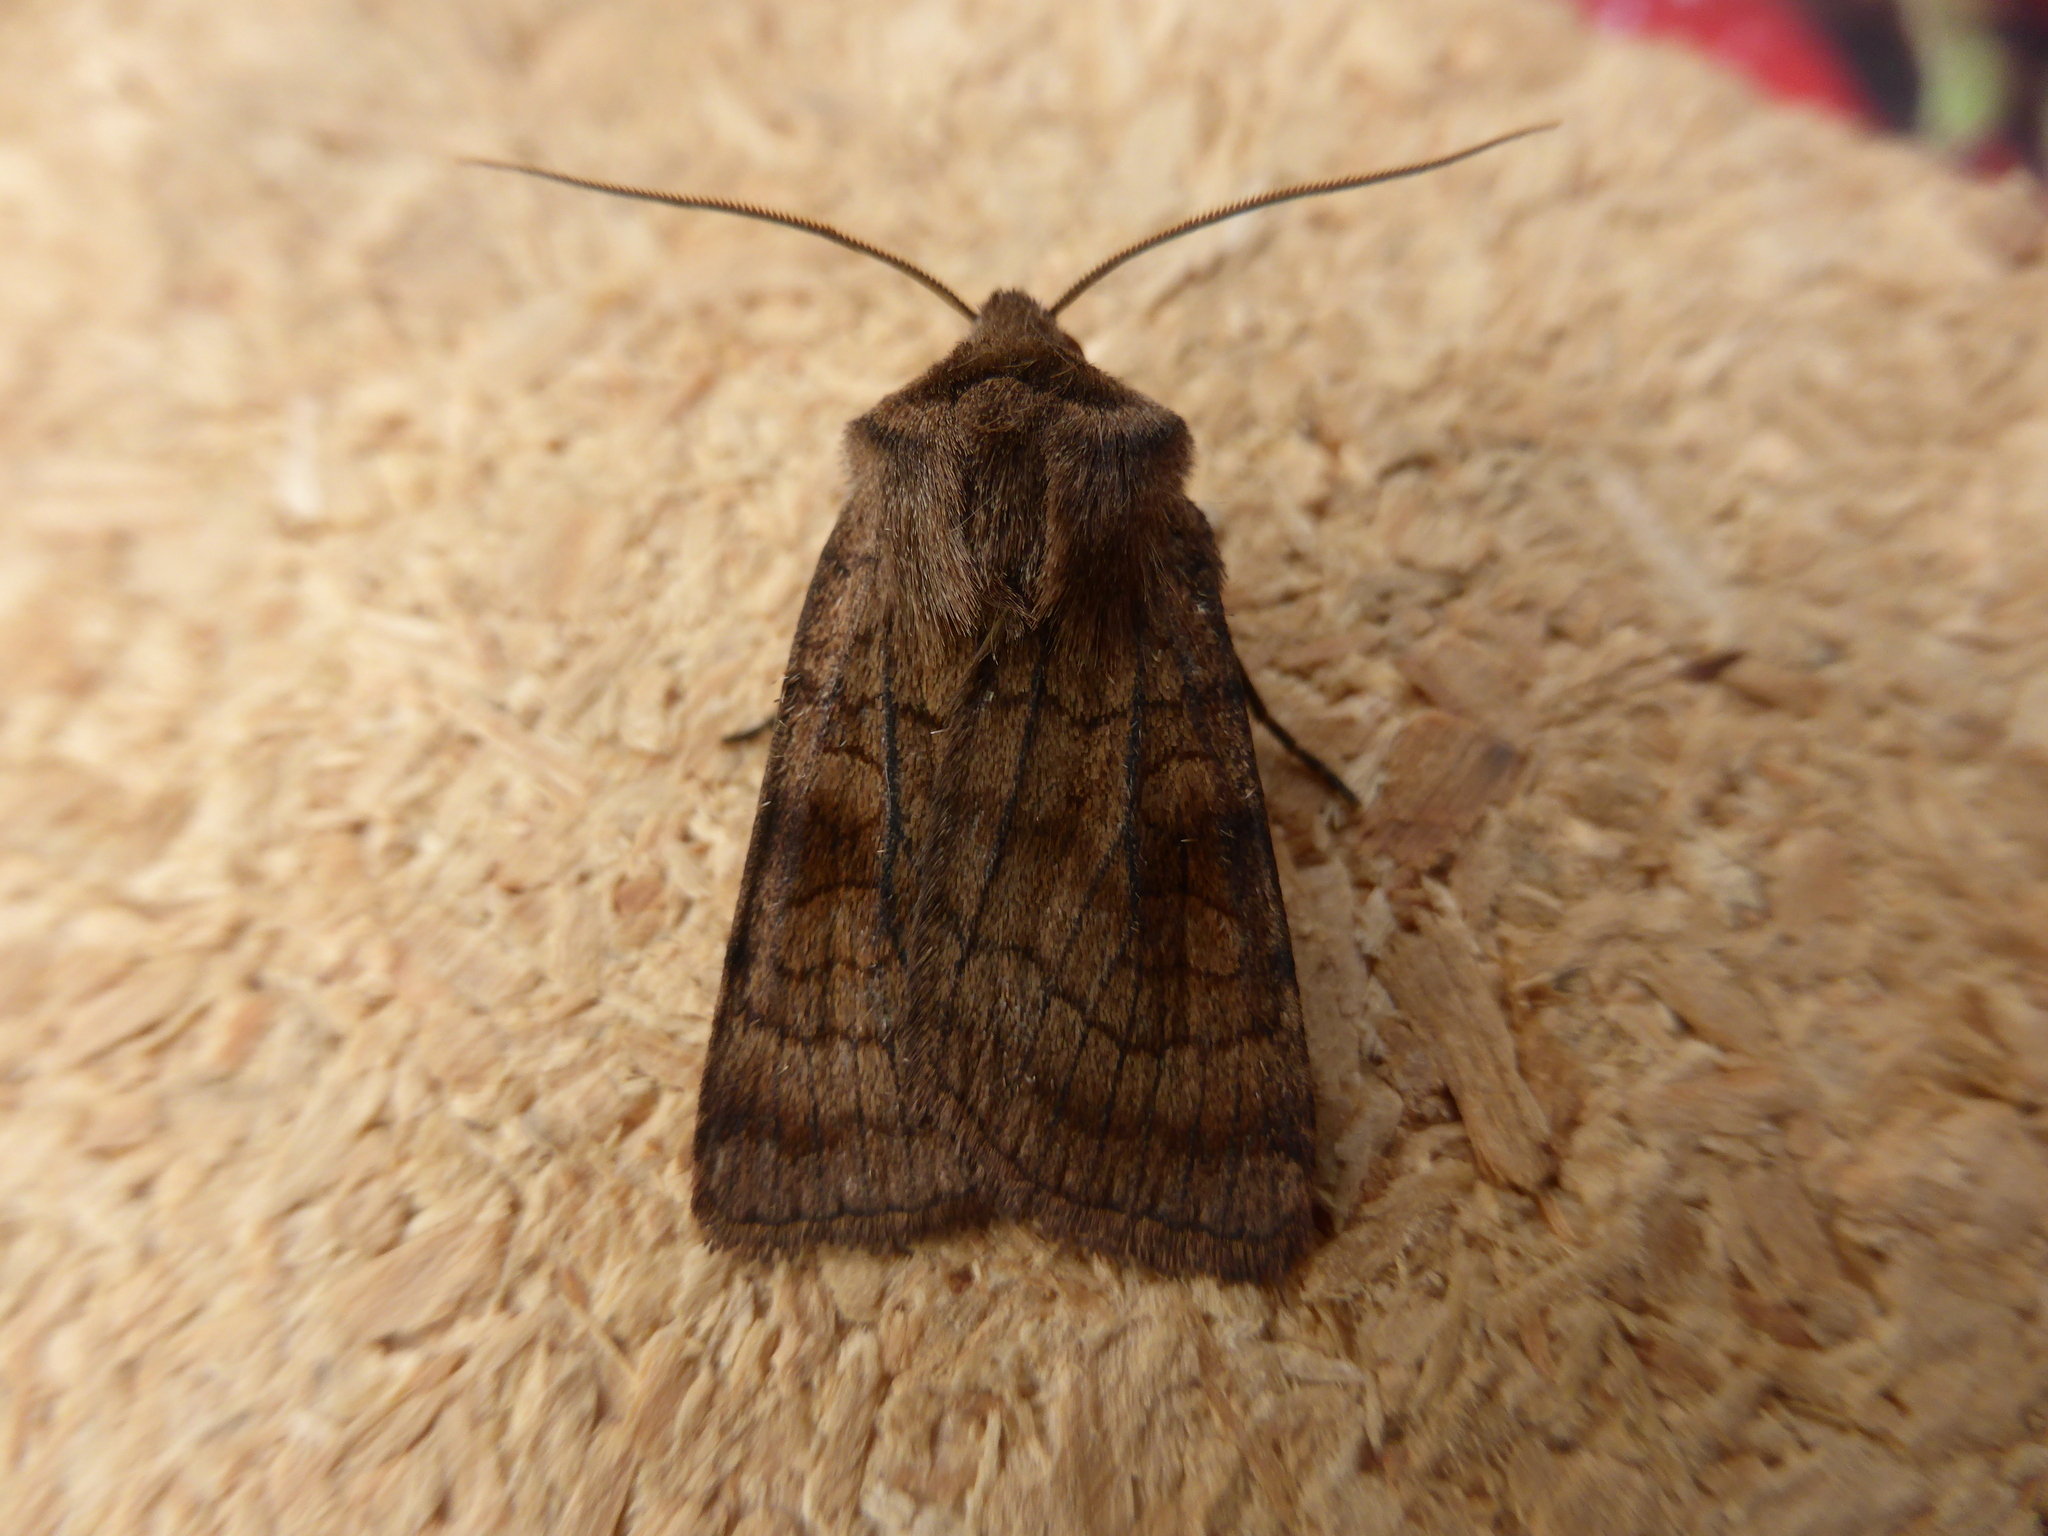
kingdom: Animalia
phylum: Arthropoda
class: Insecta
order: Lepidoptera
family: Noctuidae
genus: Xestia
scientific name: Xestia sexstrigata
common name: Six-striped rustic
